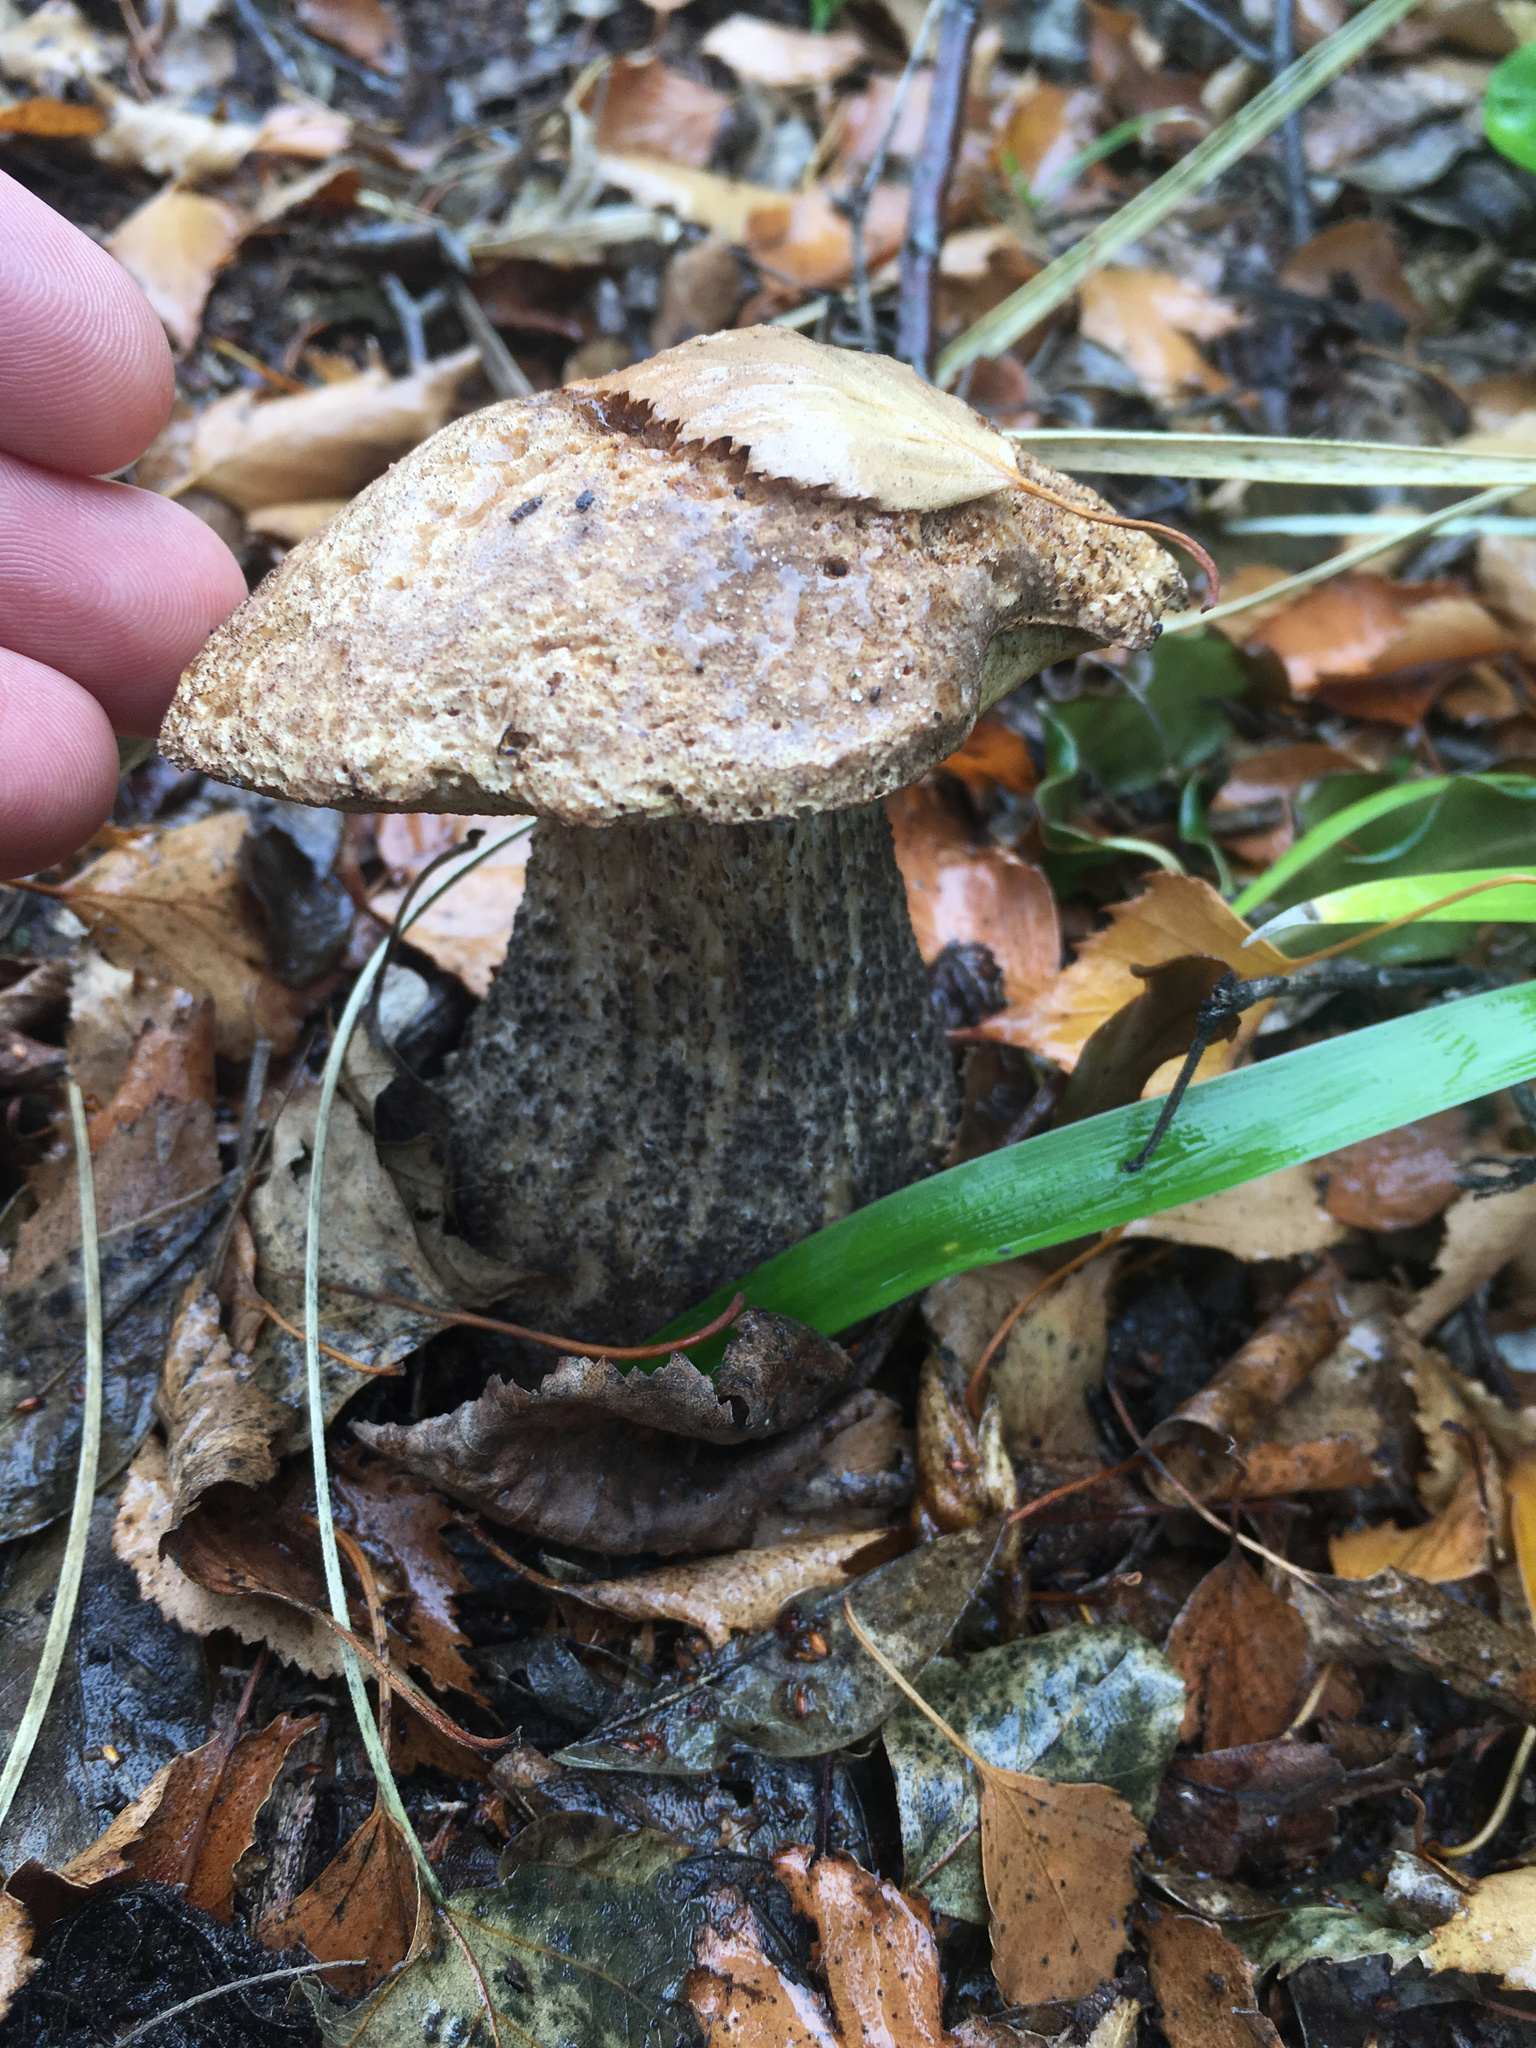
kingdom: Fungi
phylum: Basidiomycota
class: Agaricomycetes
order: Boletales
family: Boletaceae
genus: Leccinum
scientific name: Leccinum scabrum
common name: Blushing bolete
